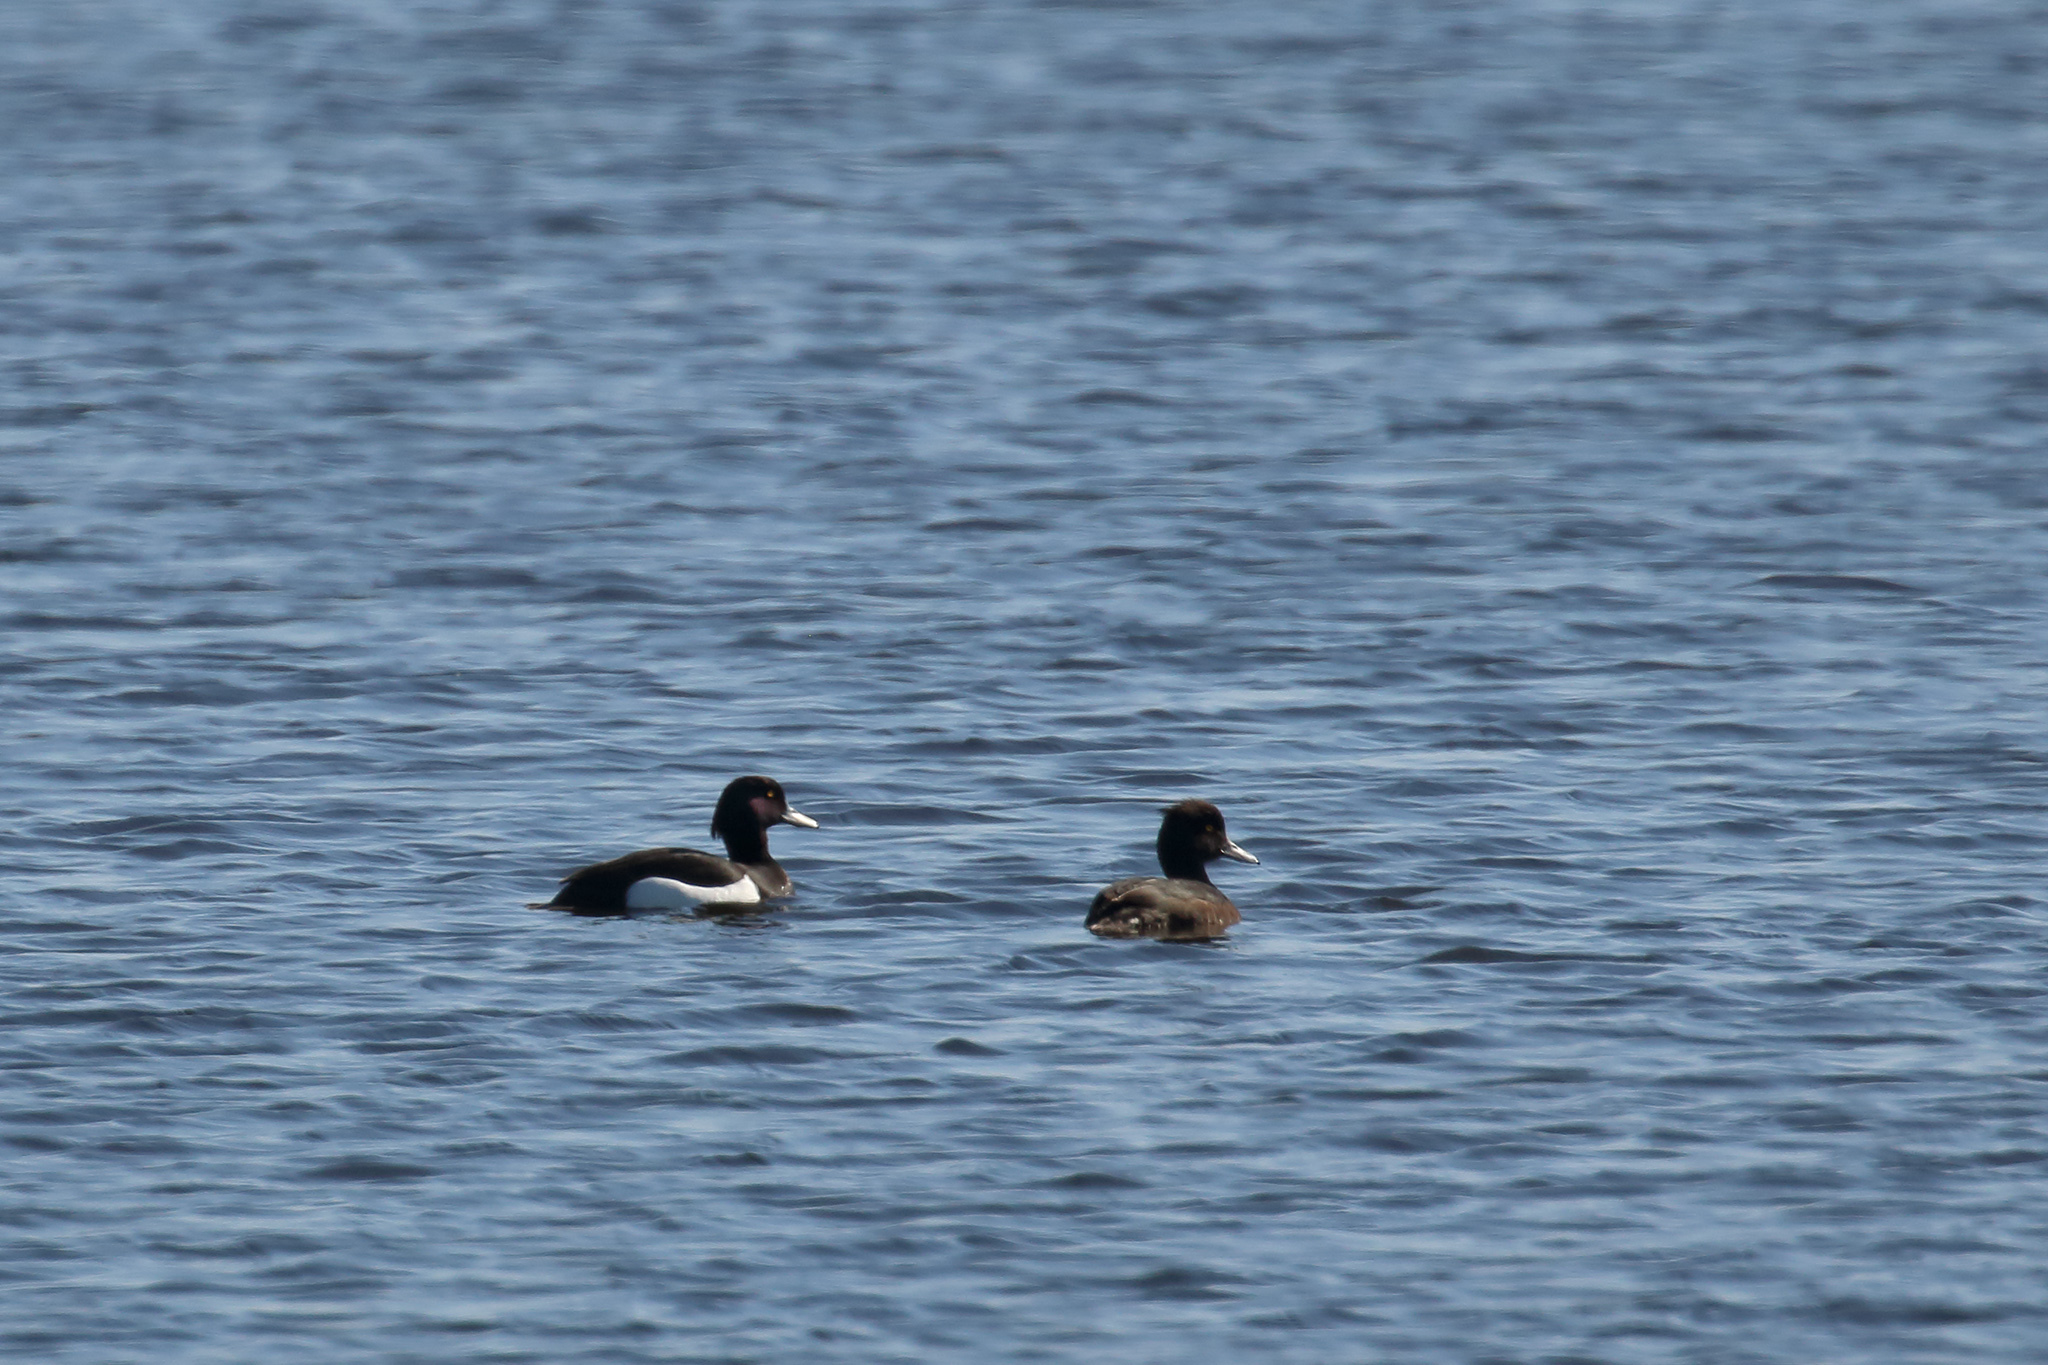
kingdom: Animalia
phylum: Chordata
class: Aves
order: Anseriformes
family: Anatidae
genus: Aythya
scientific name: Aythya fuligula
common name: Tufted duck
